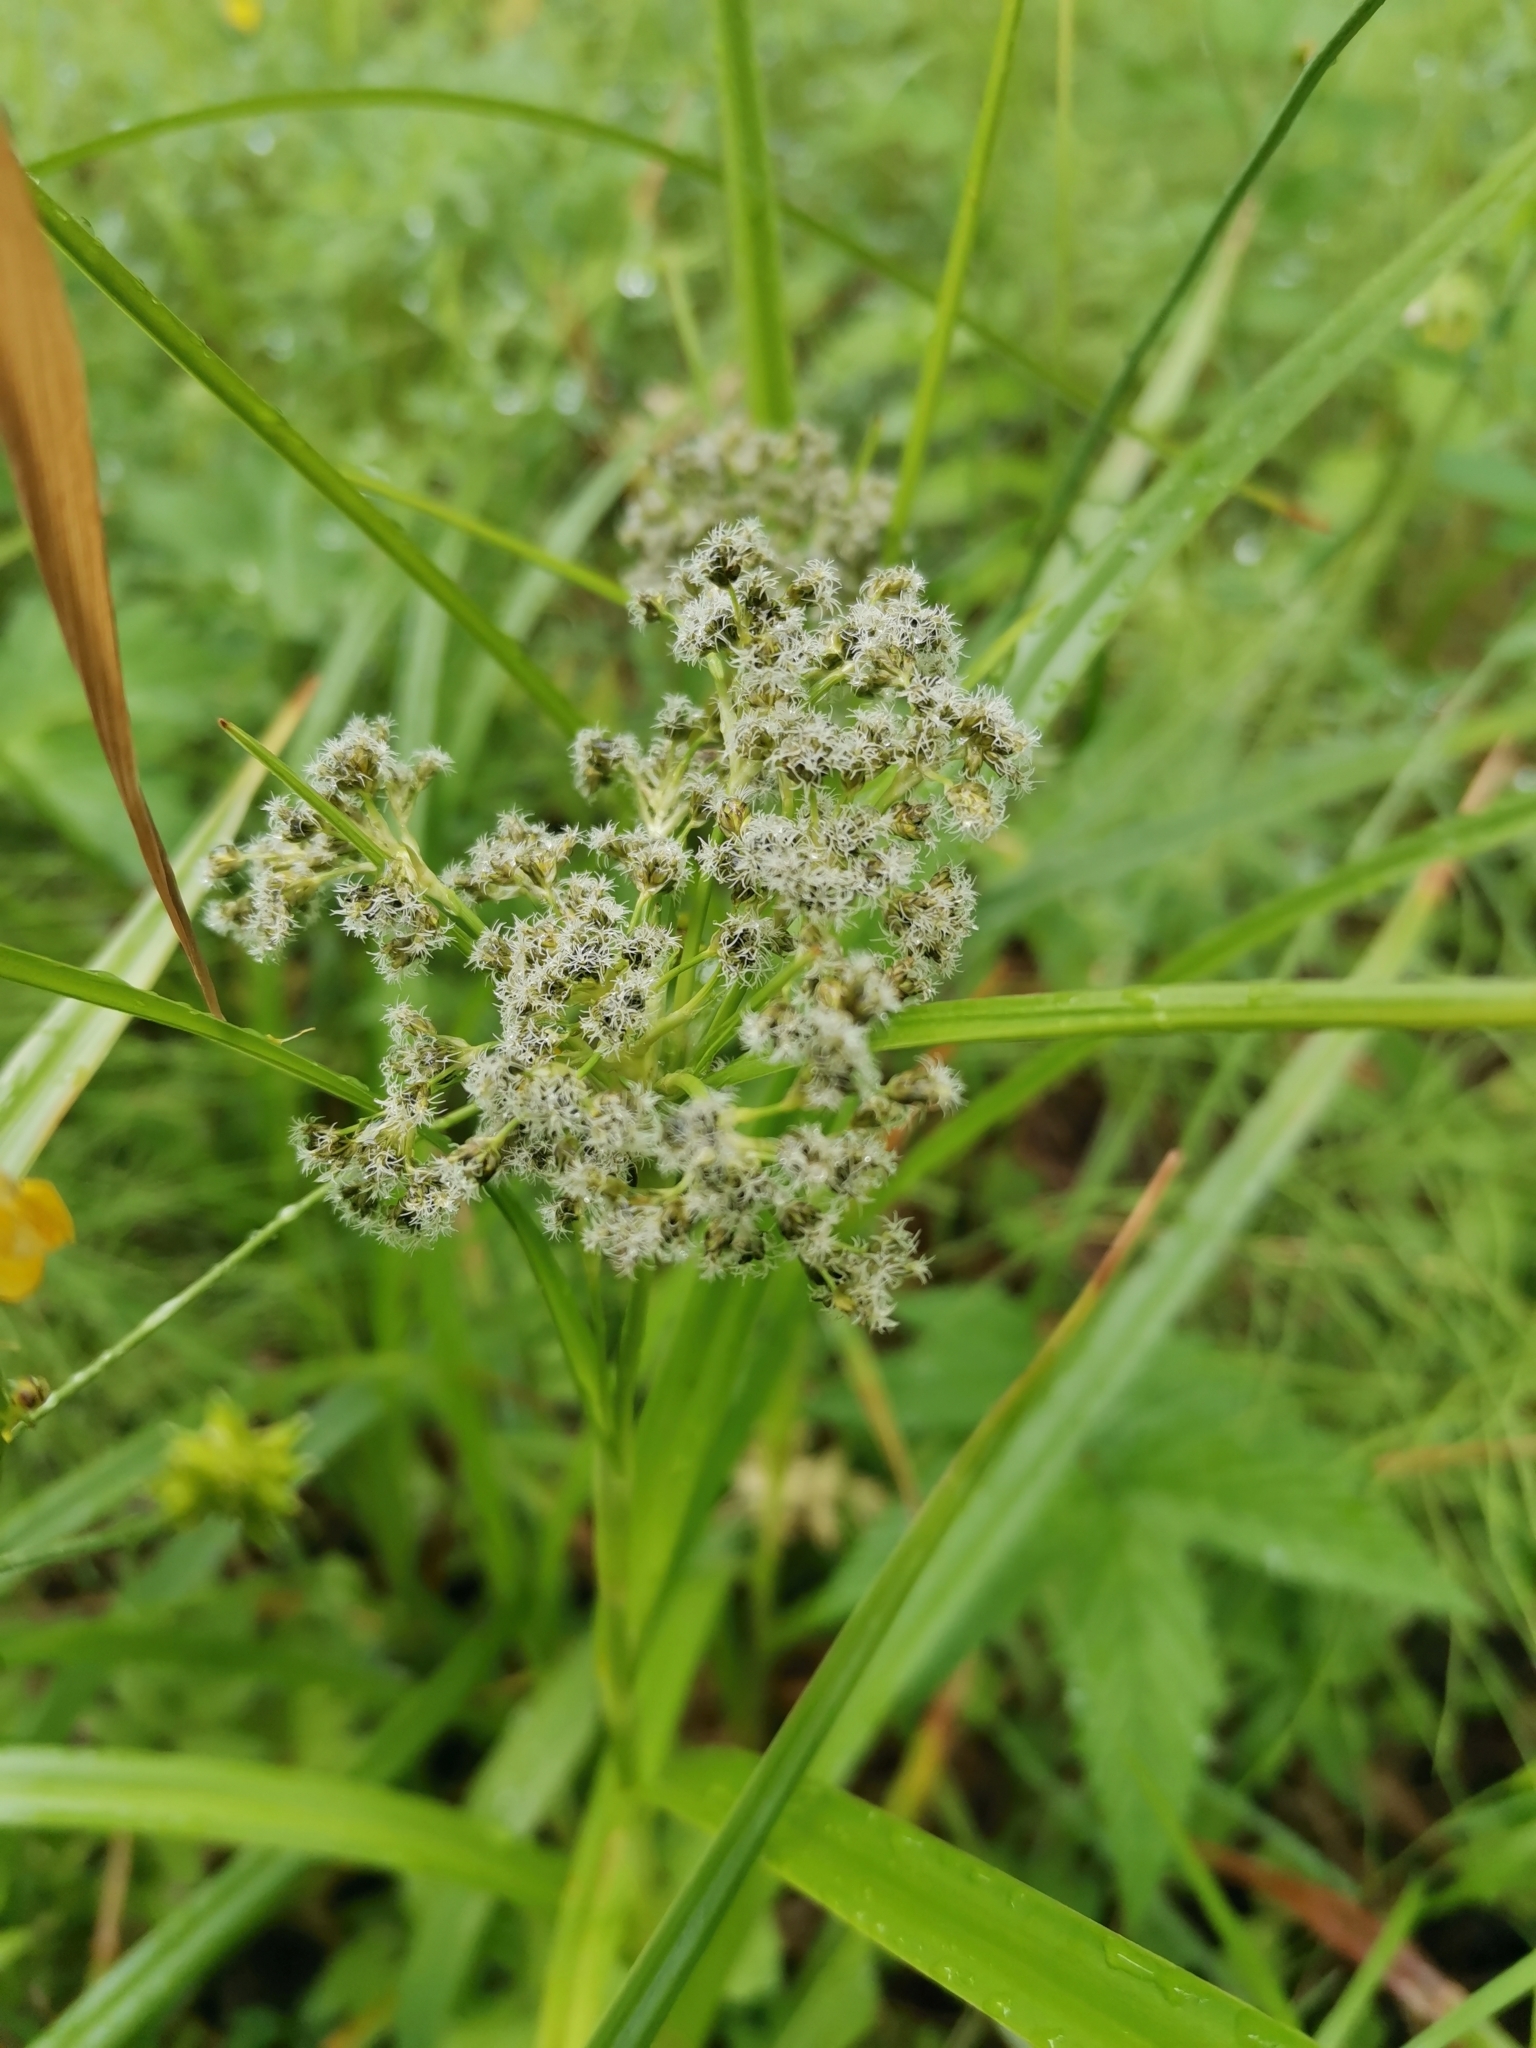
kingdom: Plantae
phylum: Tracheophyta
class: Liliopsida
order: Poales
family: Cyperaceae
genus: Scirpus
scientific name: Scirpus sylvaticus
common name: Wood club-rush
